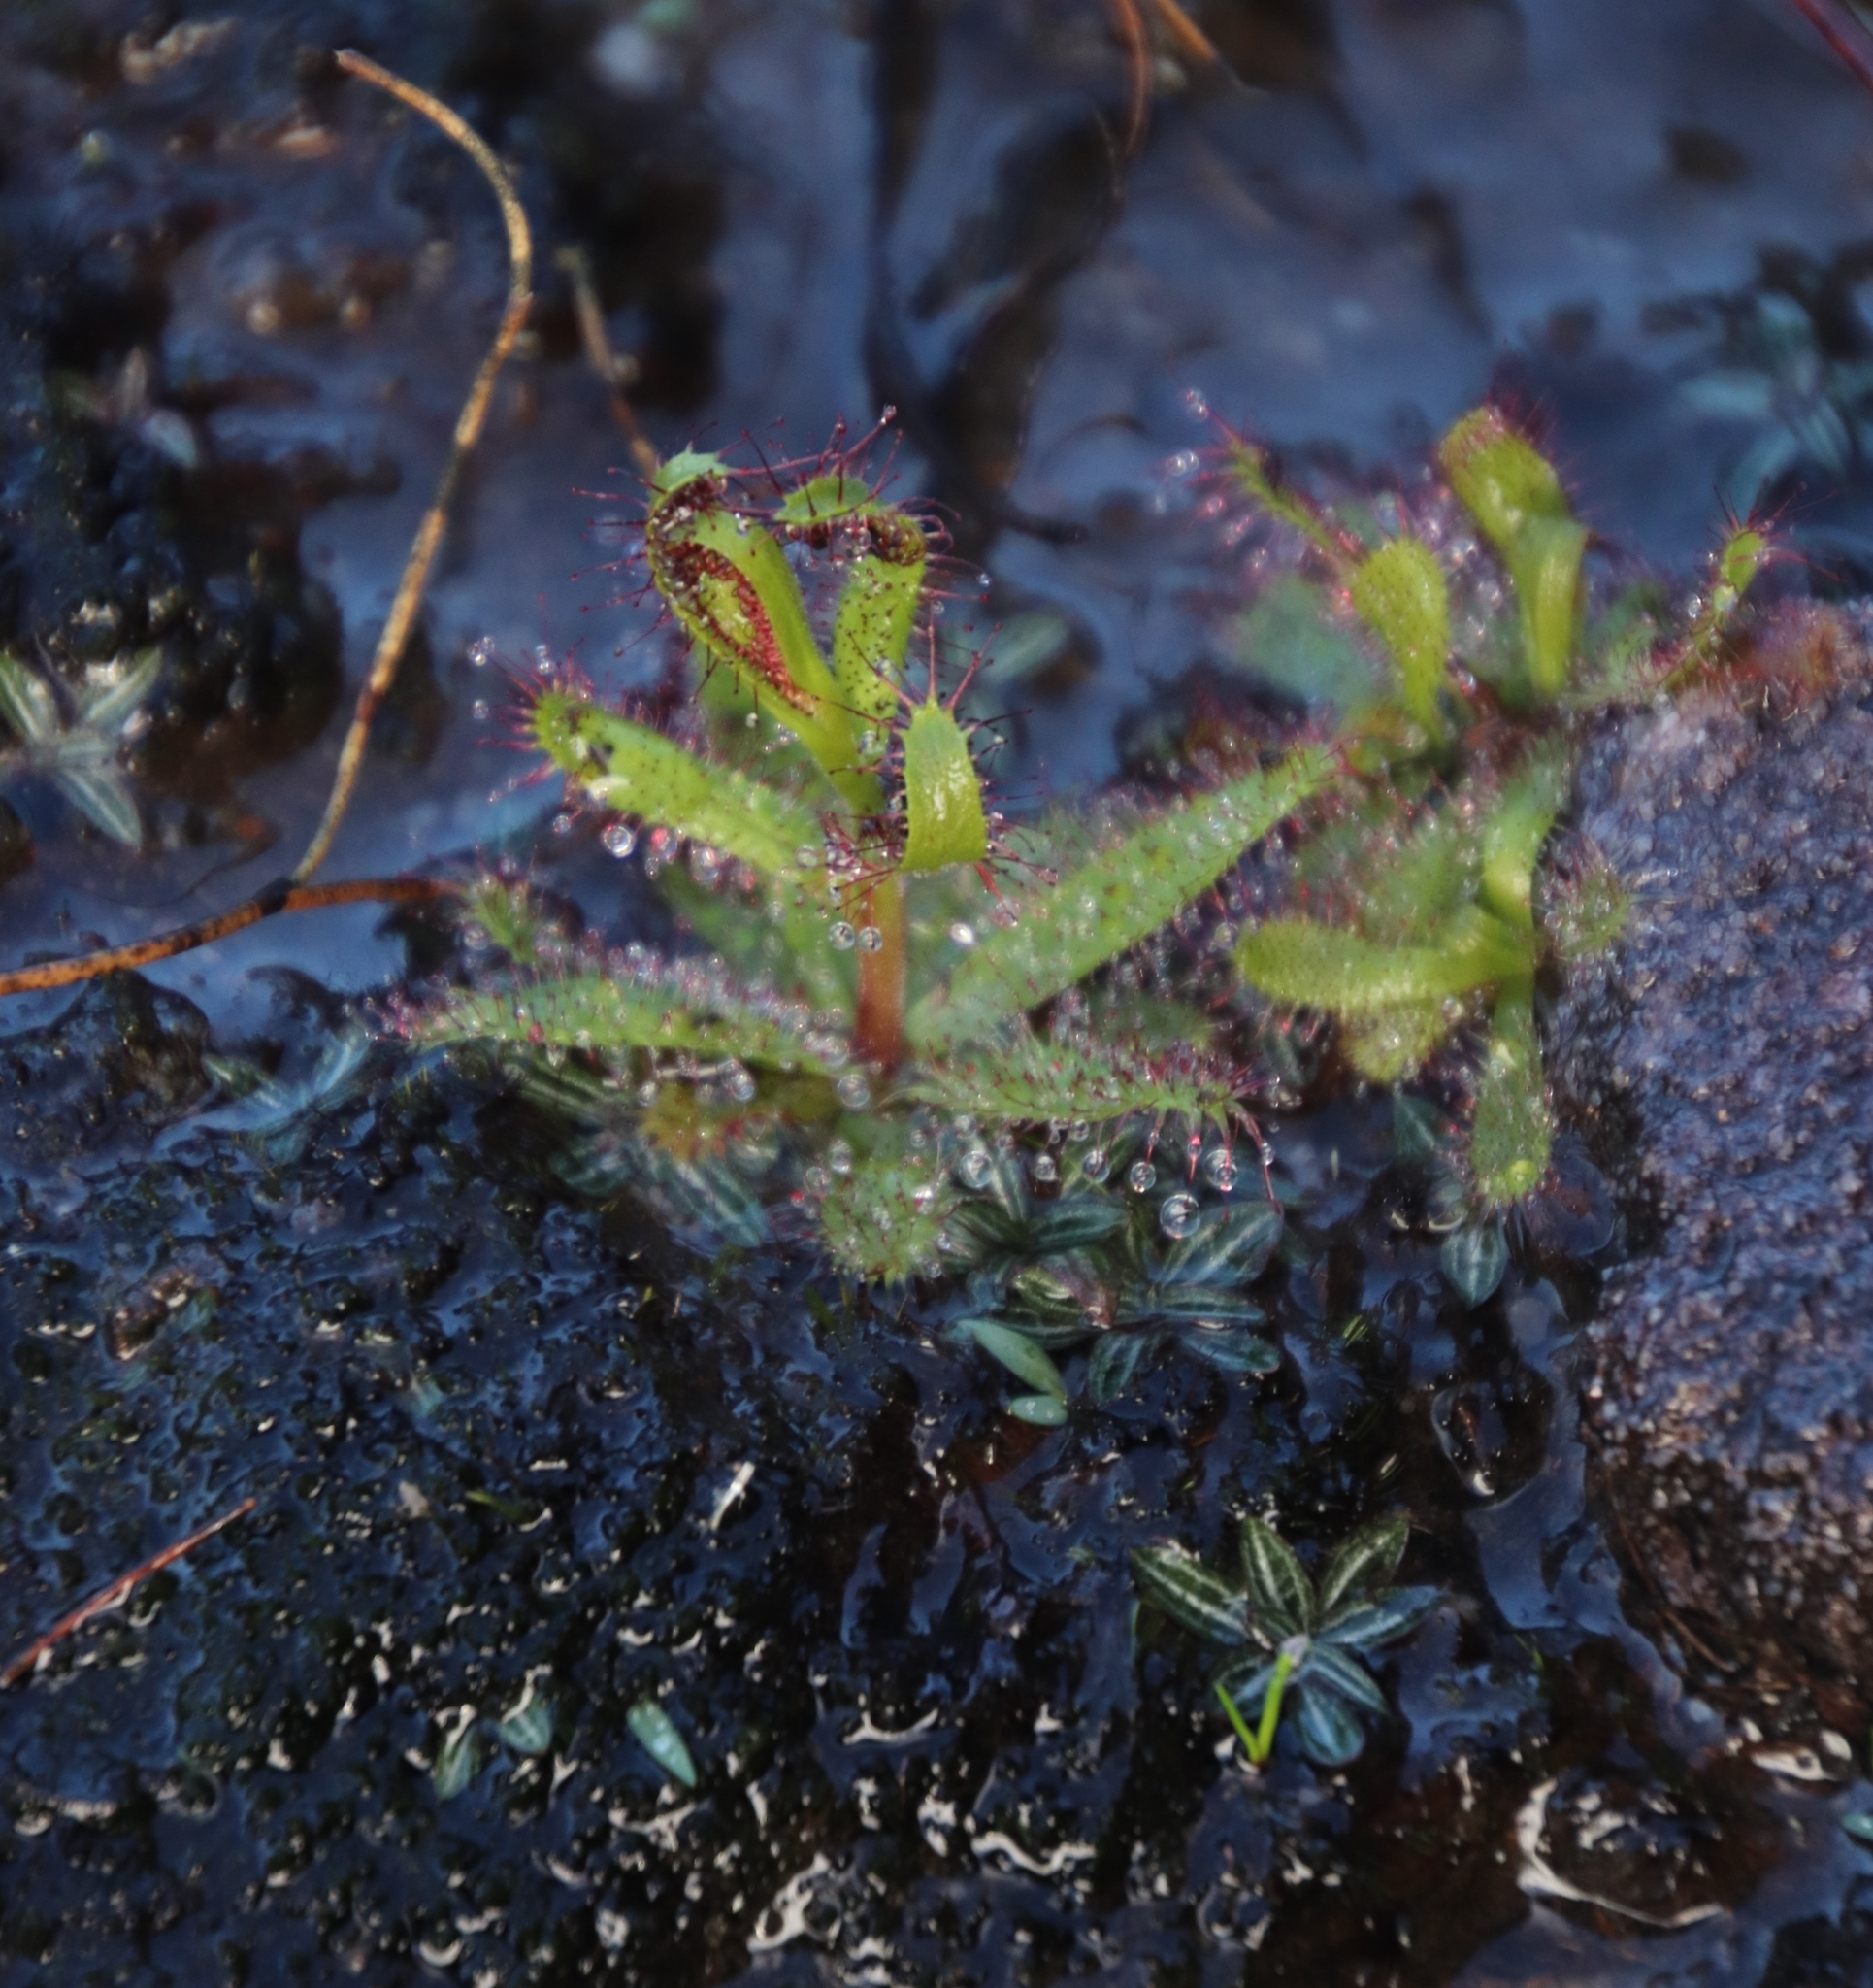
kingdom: Plantae
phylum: Tracheophyta
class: Magnoliopsida
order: Caryophyllales
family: Droseraceae
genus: Drosera
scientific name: Drosera cistiflora
